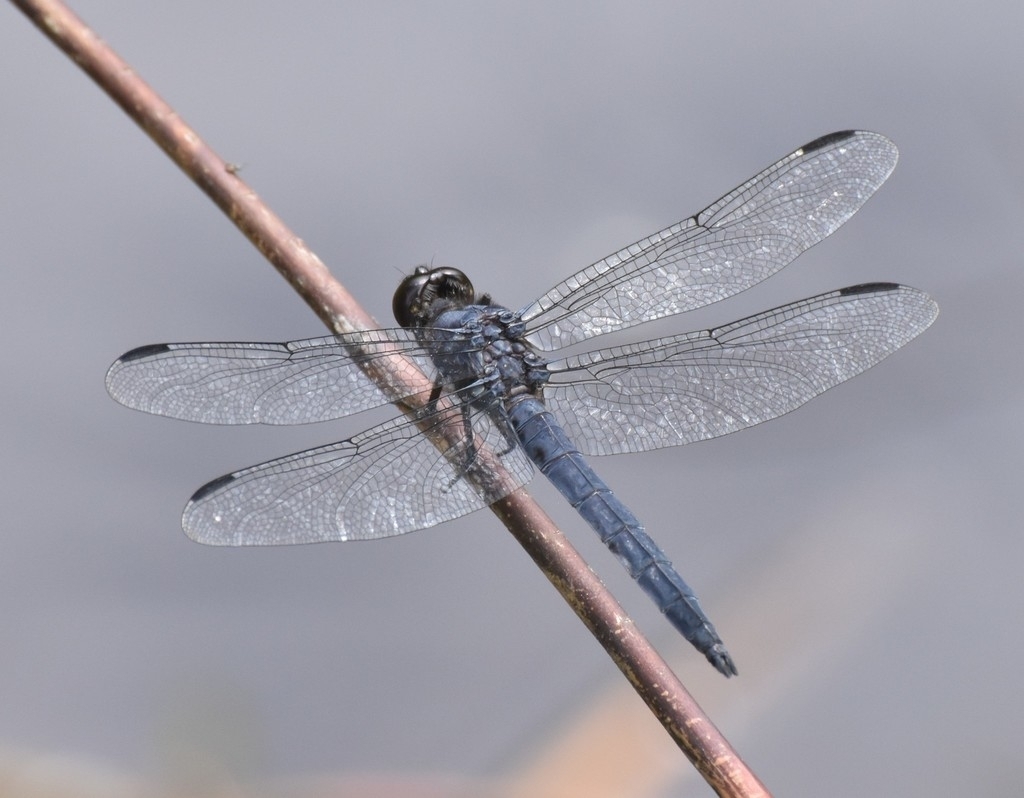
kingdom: Animalia
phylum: Arthropoda
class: Insecta
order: Odonata
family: Libellulidae
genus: Libellula
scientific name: Libellula incesta
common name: Slaty skimmer
